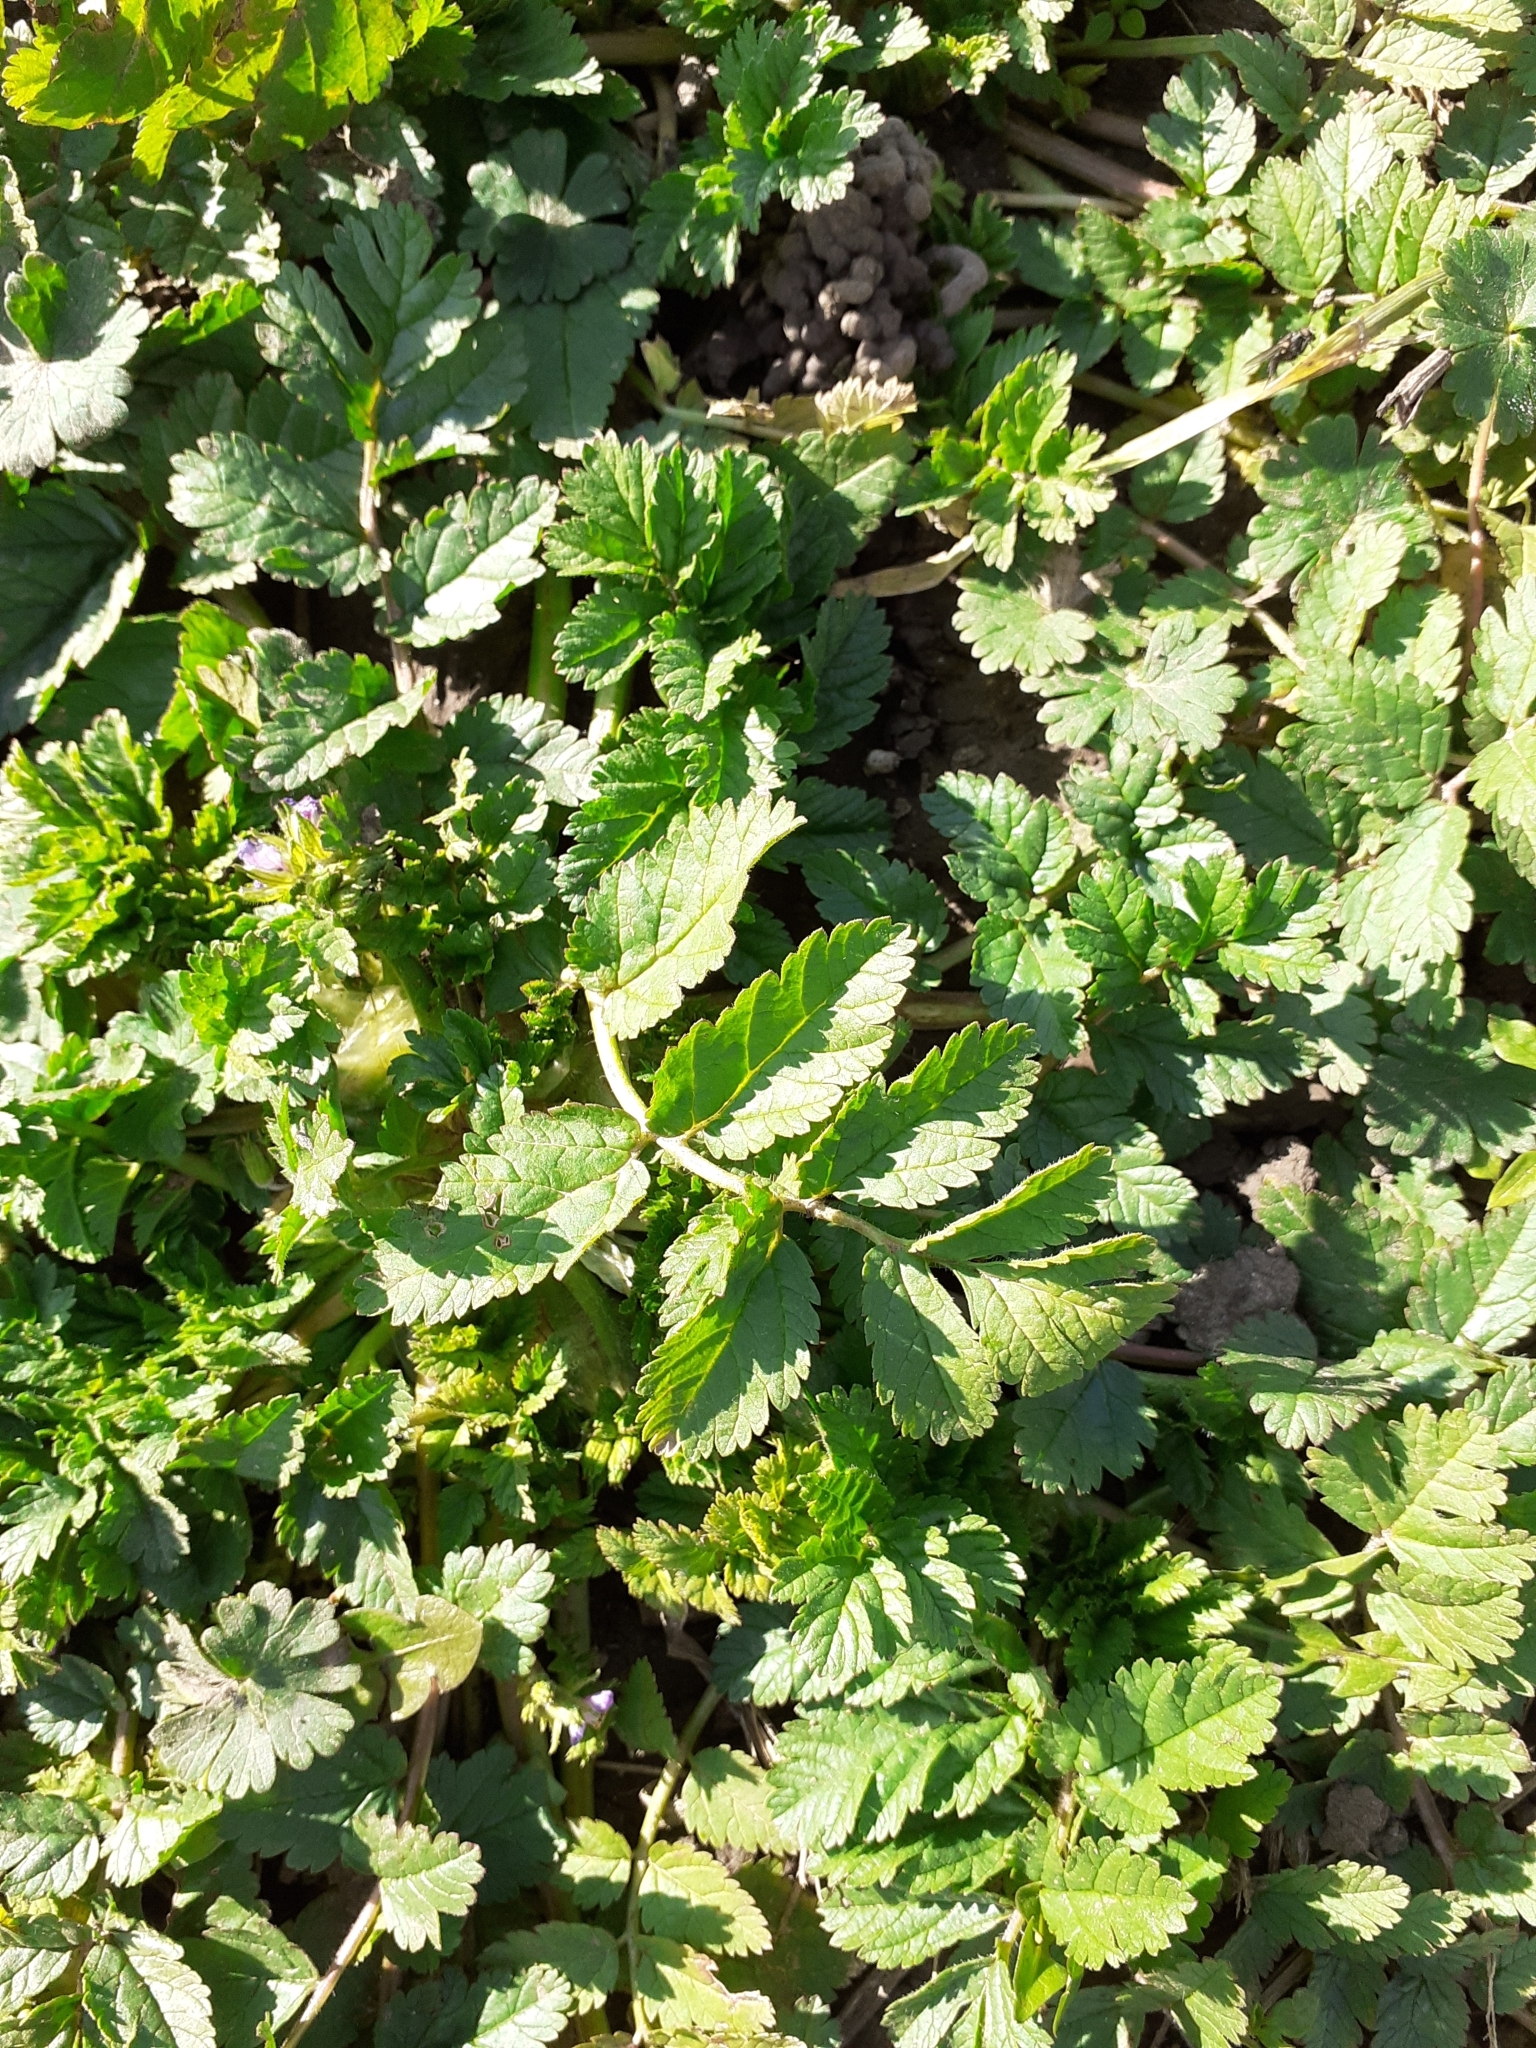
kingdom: Plantae
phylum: Tracheophyta
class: Magnoliopsida
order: Geraniales
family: Geraniaceae
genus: Erodium
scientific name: Erodium moschatum
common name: Musk stork's-bill
